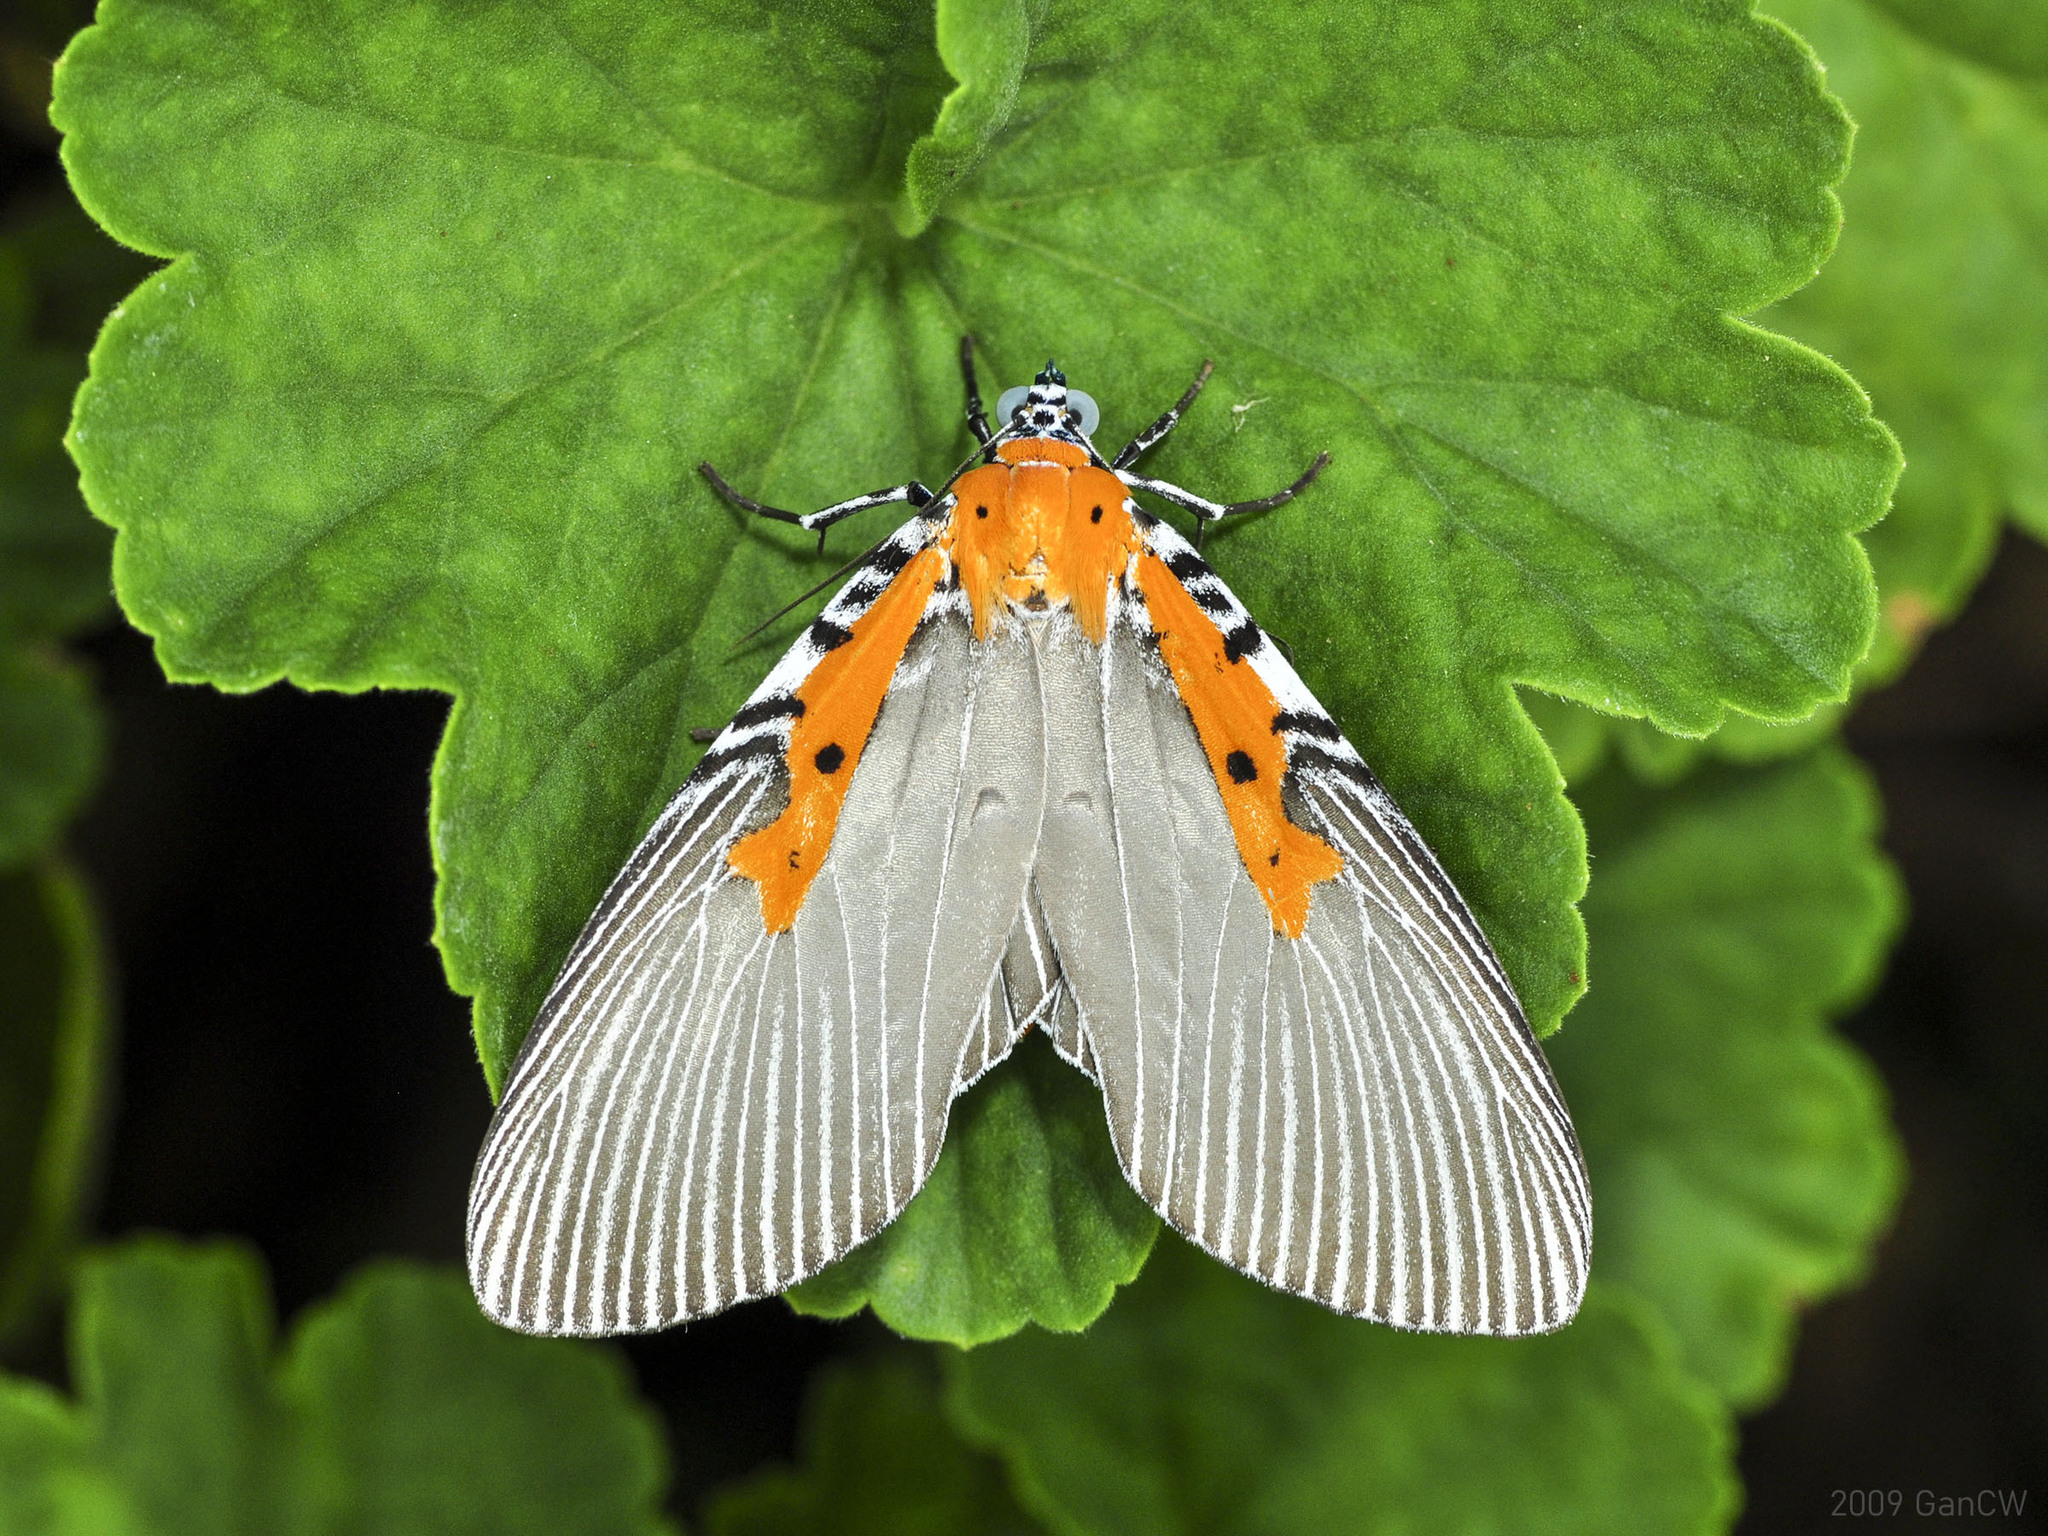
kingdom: Animalia
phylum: Arthropoda
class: Insecta
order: Lepidoptera
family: Erebidae
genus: Euplocia
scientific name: Euplocia membliaria
